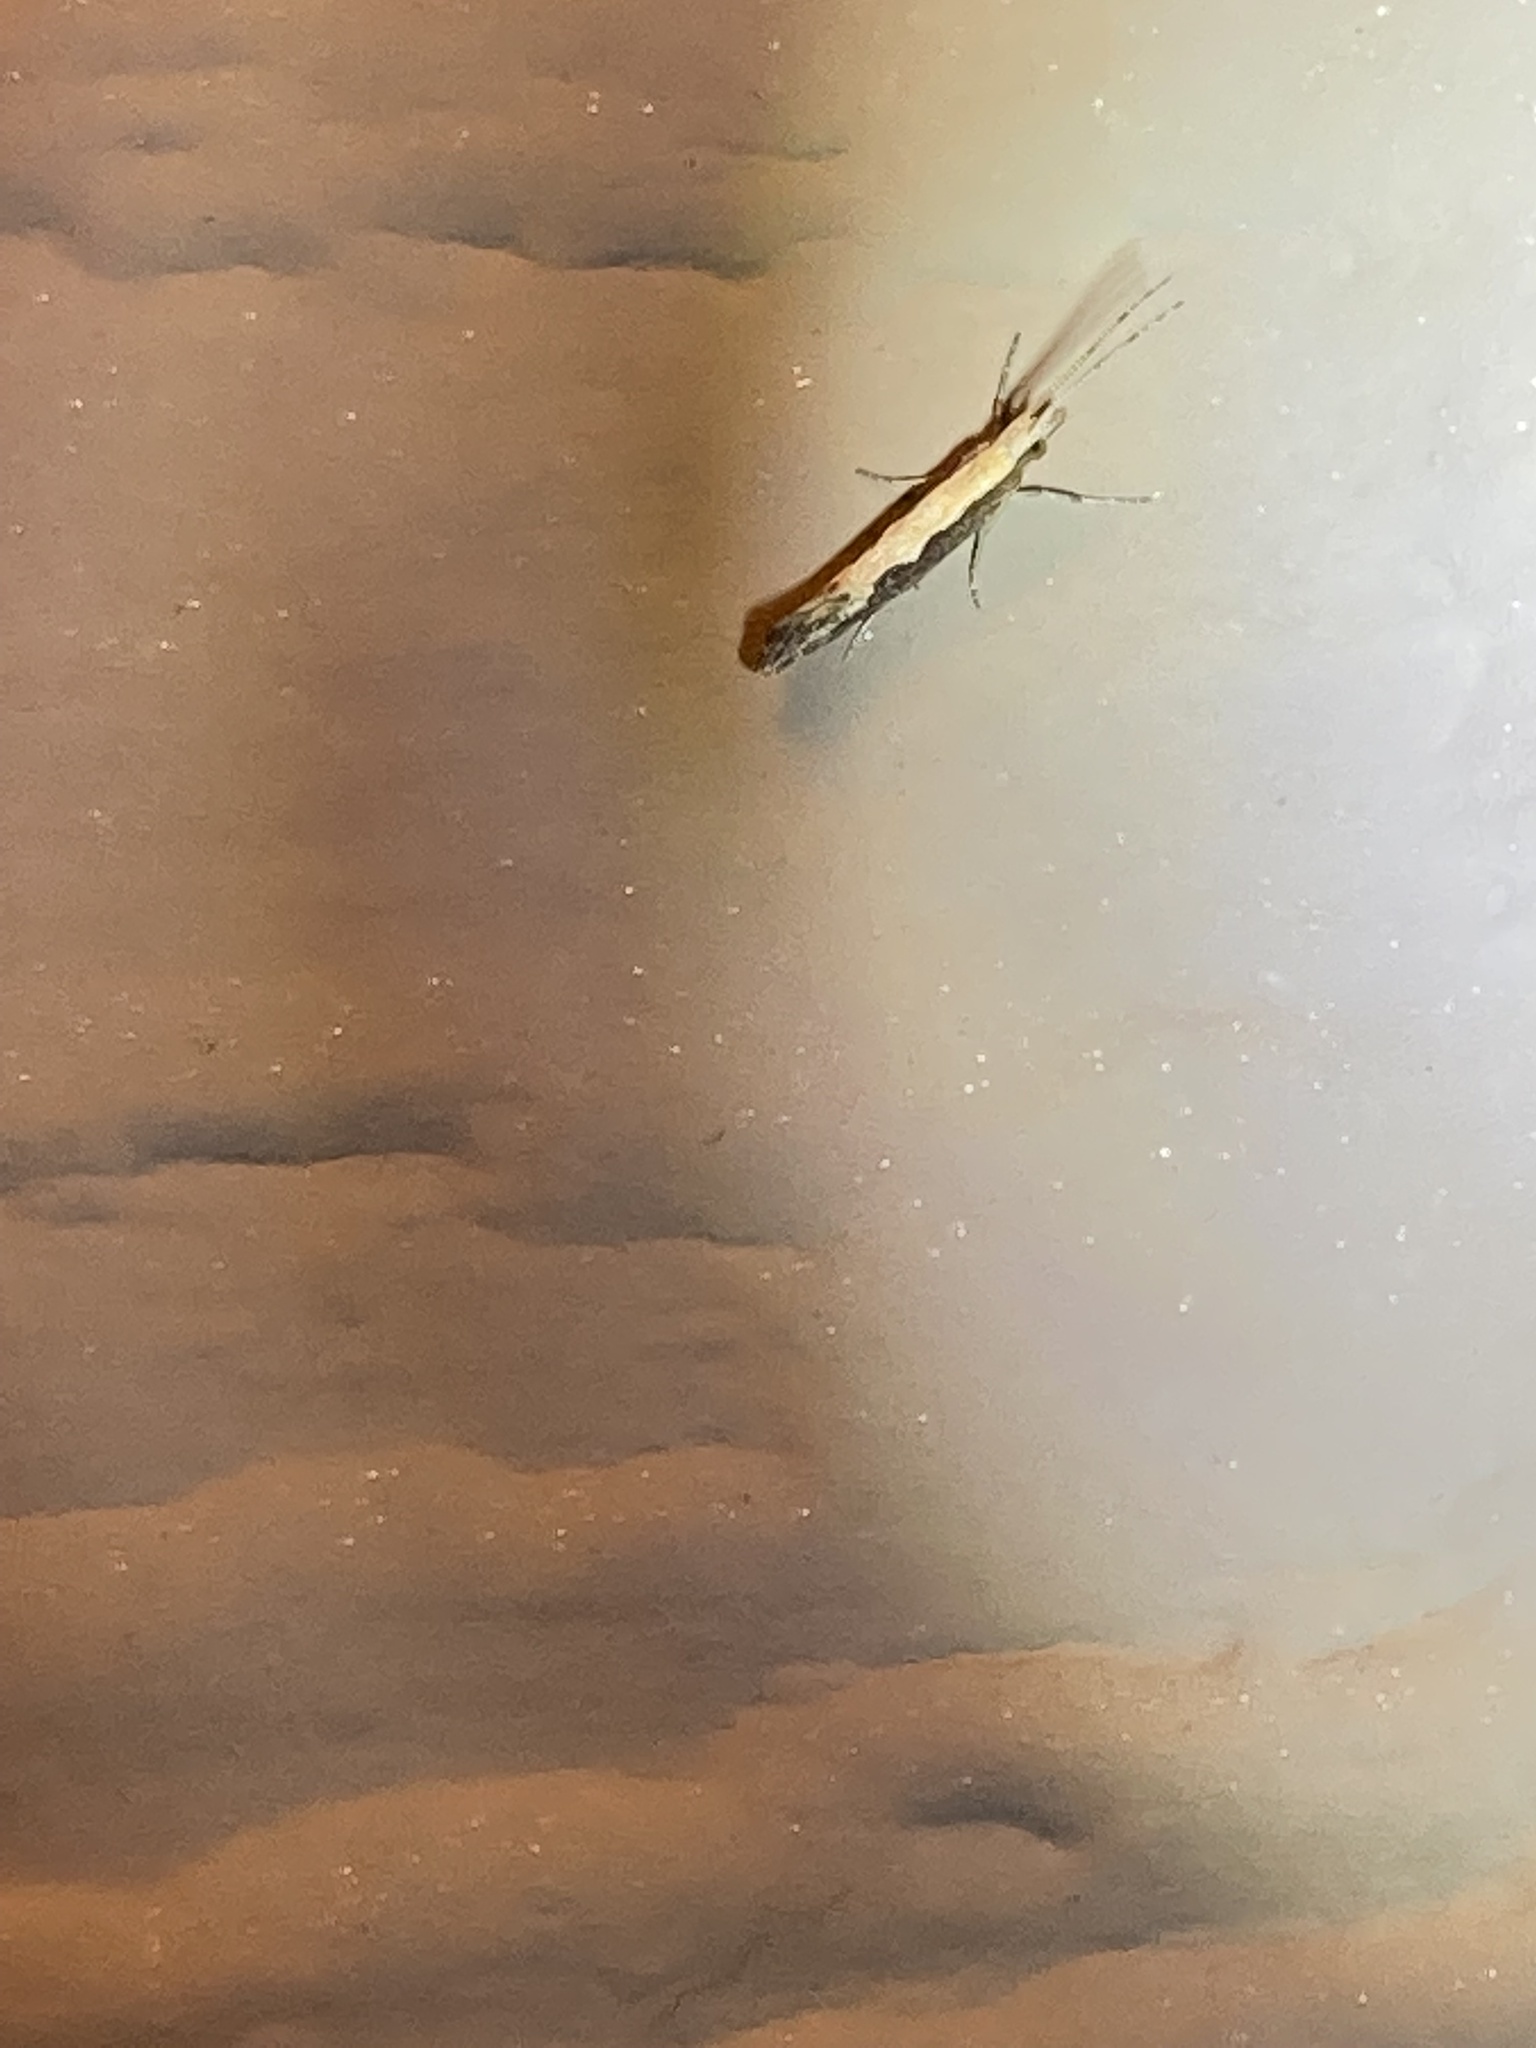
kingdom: Animalia
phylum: Arthropoda
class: Insecta
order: Lepidoptera
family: Plutellidae
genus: Plutella
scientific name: Plutella xylostella
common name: Diamond-back moth
